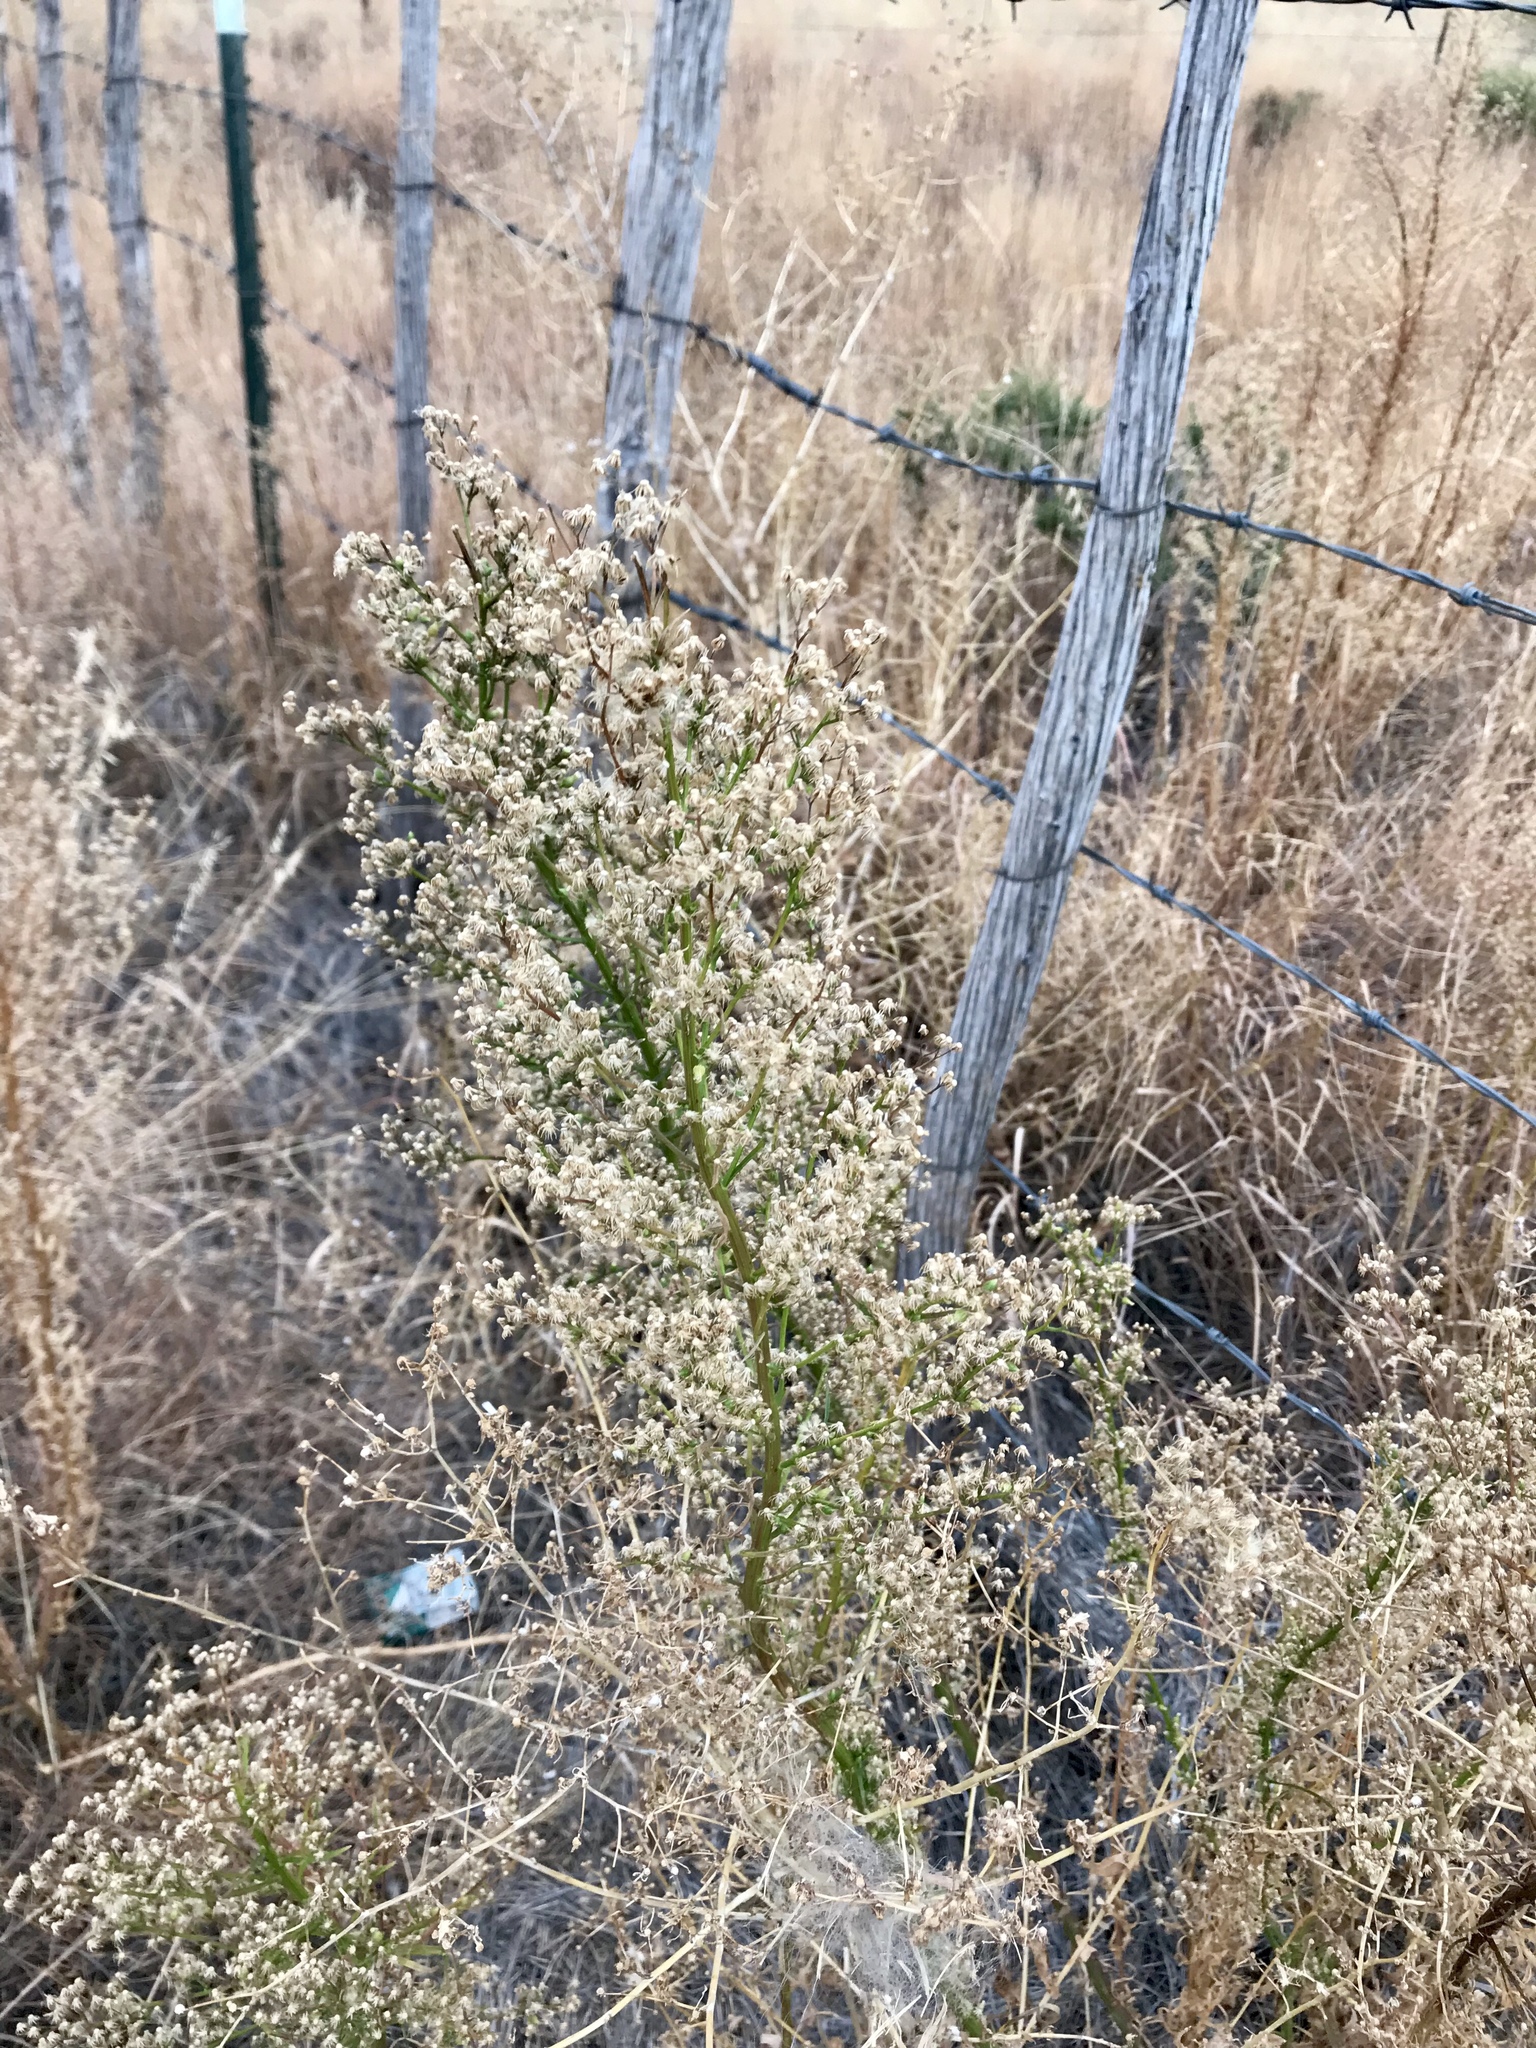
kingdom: Plantae
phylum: Tracheophyta
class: Magnoliopsida
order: Asterales
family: Asteraceae
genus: Erigeron
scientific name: Erigeron canadensis
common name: Canadian fleabane
